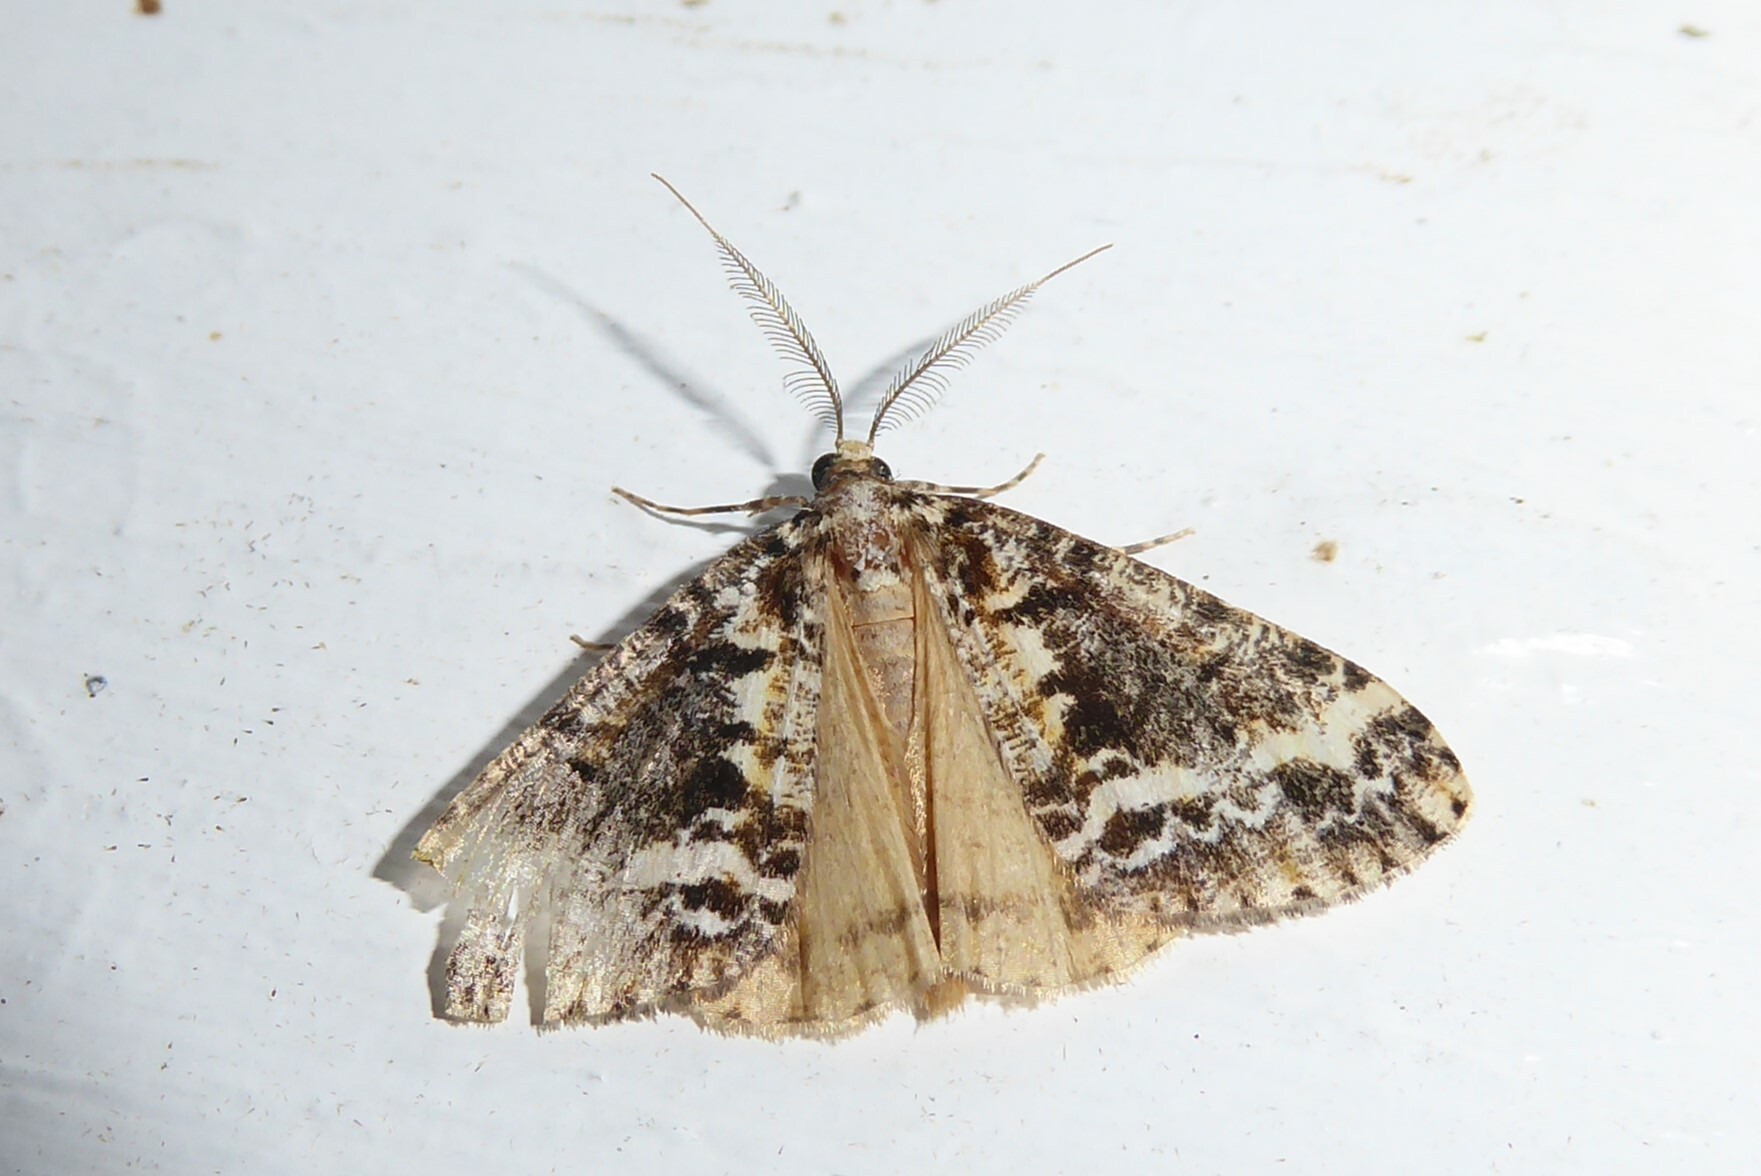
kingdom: Animalia
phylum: Arthropoda
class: Insecta
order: Lepidoptera
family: Geometridae
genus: Pseudocoremia
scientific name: Pseudocoremia leucelaea
